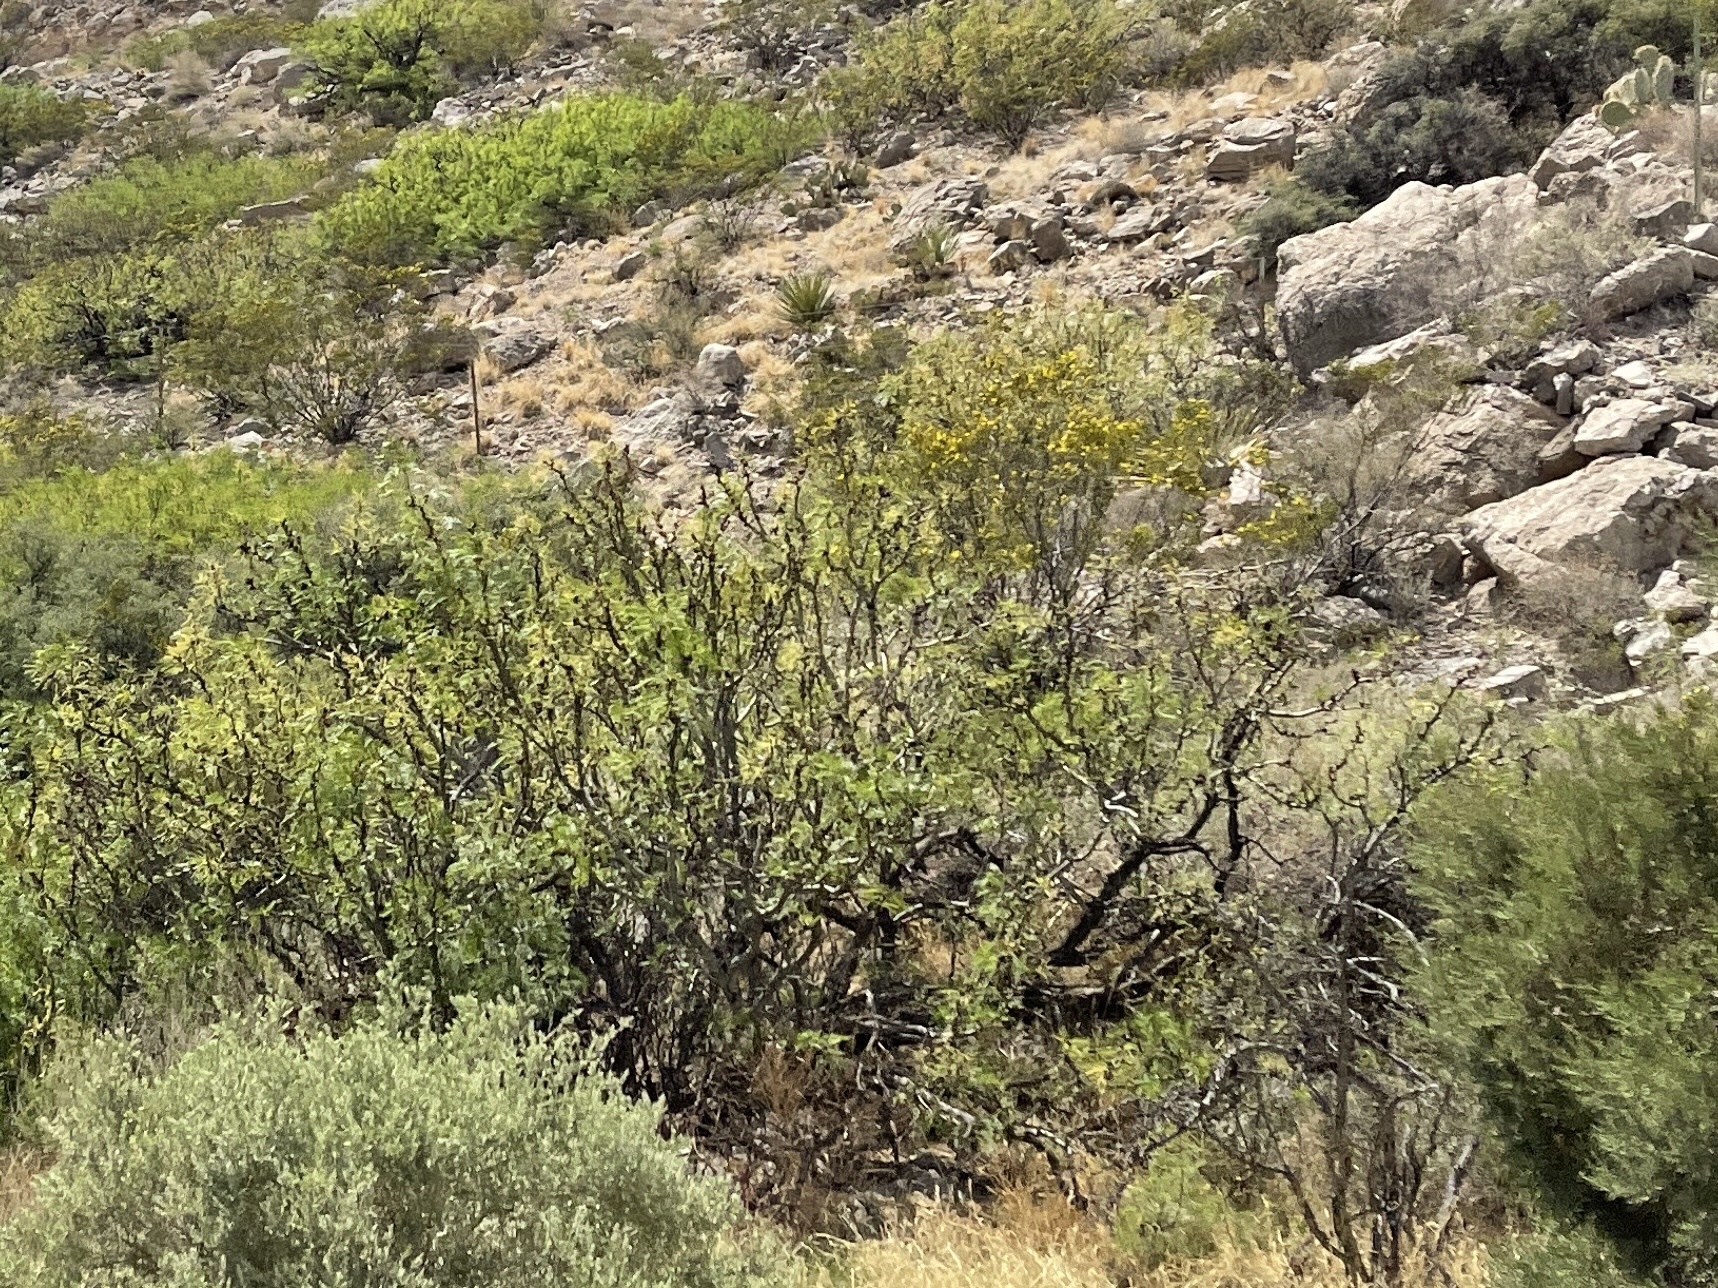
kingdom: Plantae
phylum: Tracheophyta
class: Magnoliopsida
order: Zygophyllales
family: Zygophyllaceae
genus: Larrea
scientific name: Larrea tridentata
